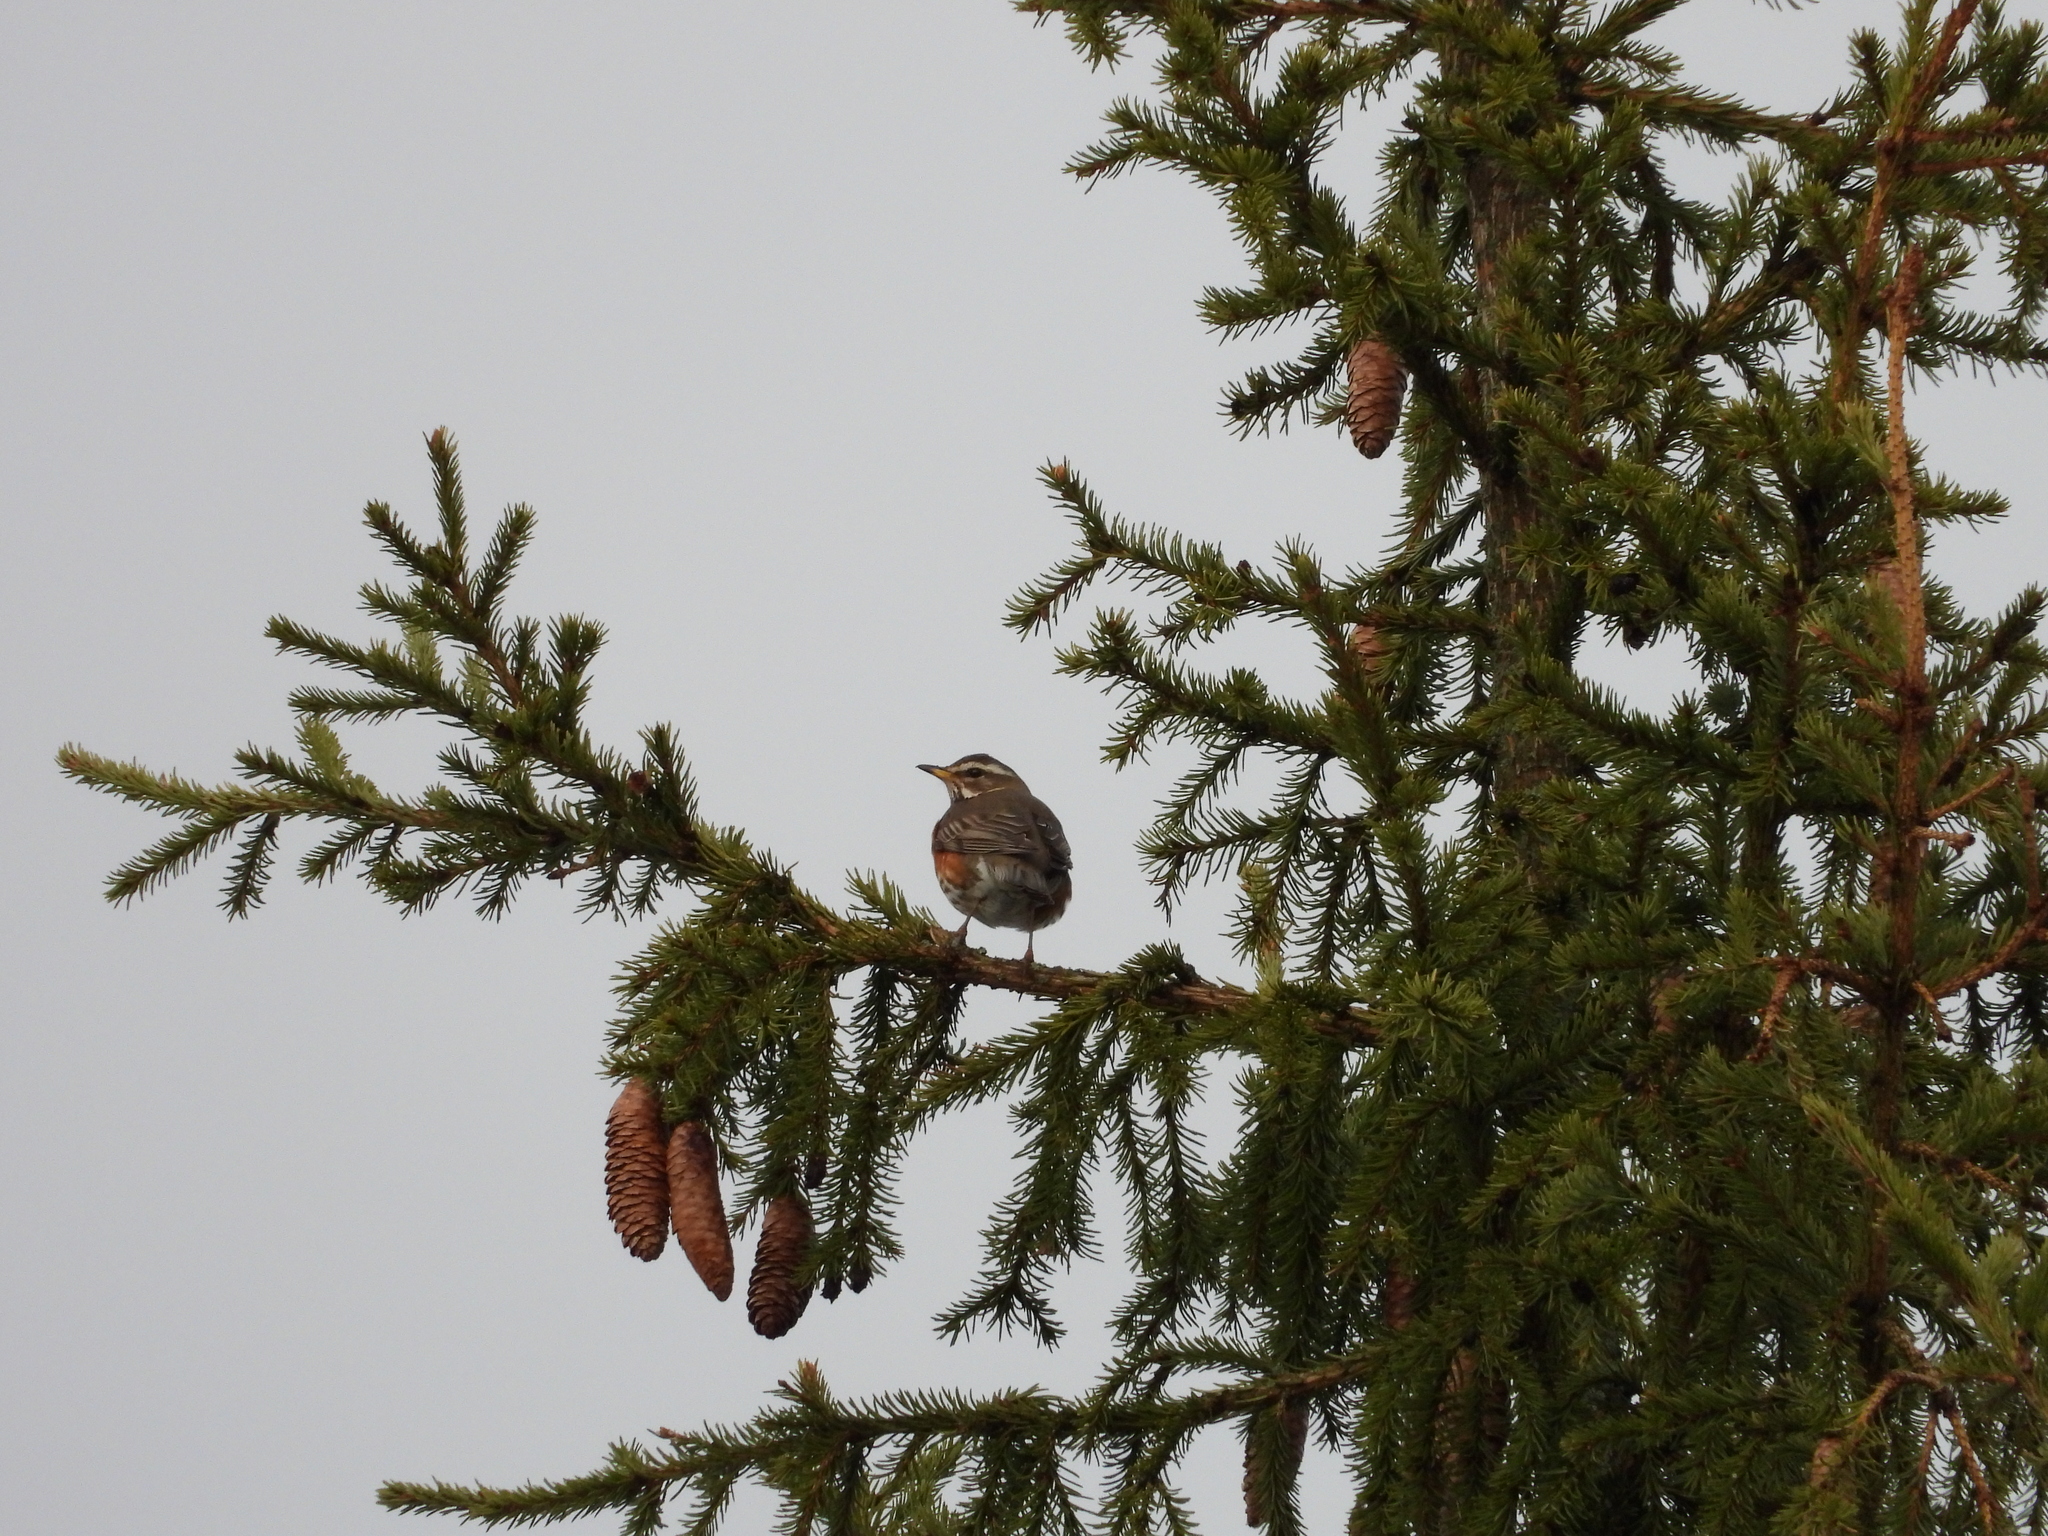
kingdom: Animalia
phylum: Chordata
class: Aves
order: Passeriformes
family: Turdidae
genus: Turdus
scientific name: Turdus iliacus
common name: Redwing
